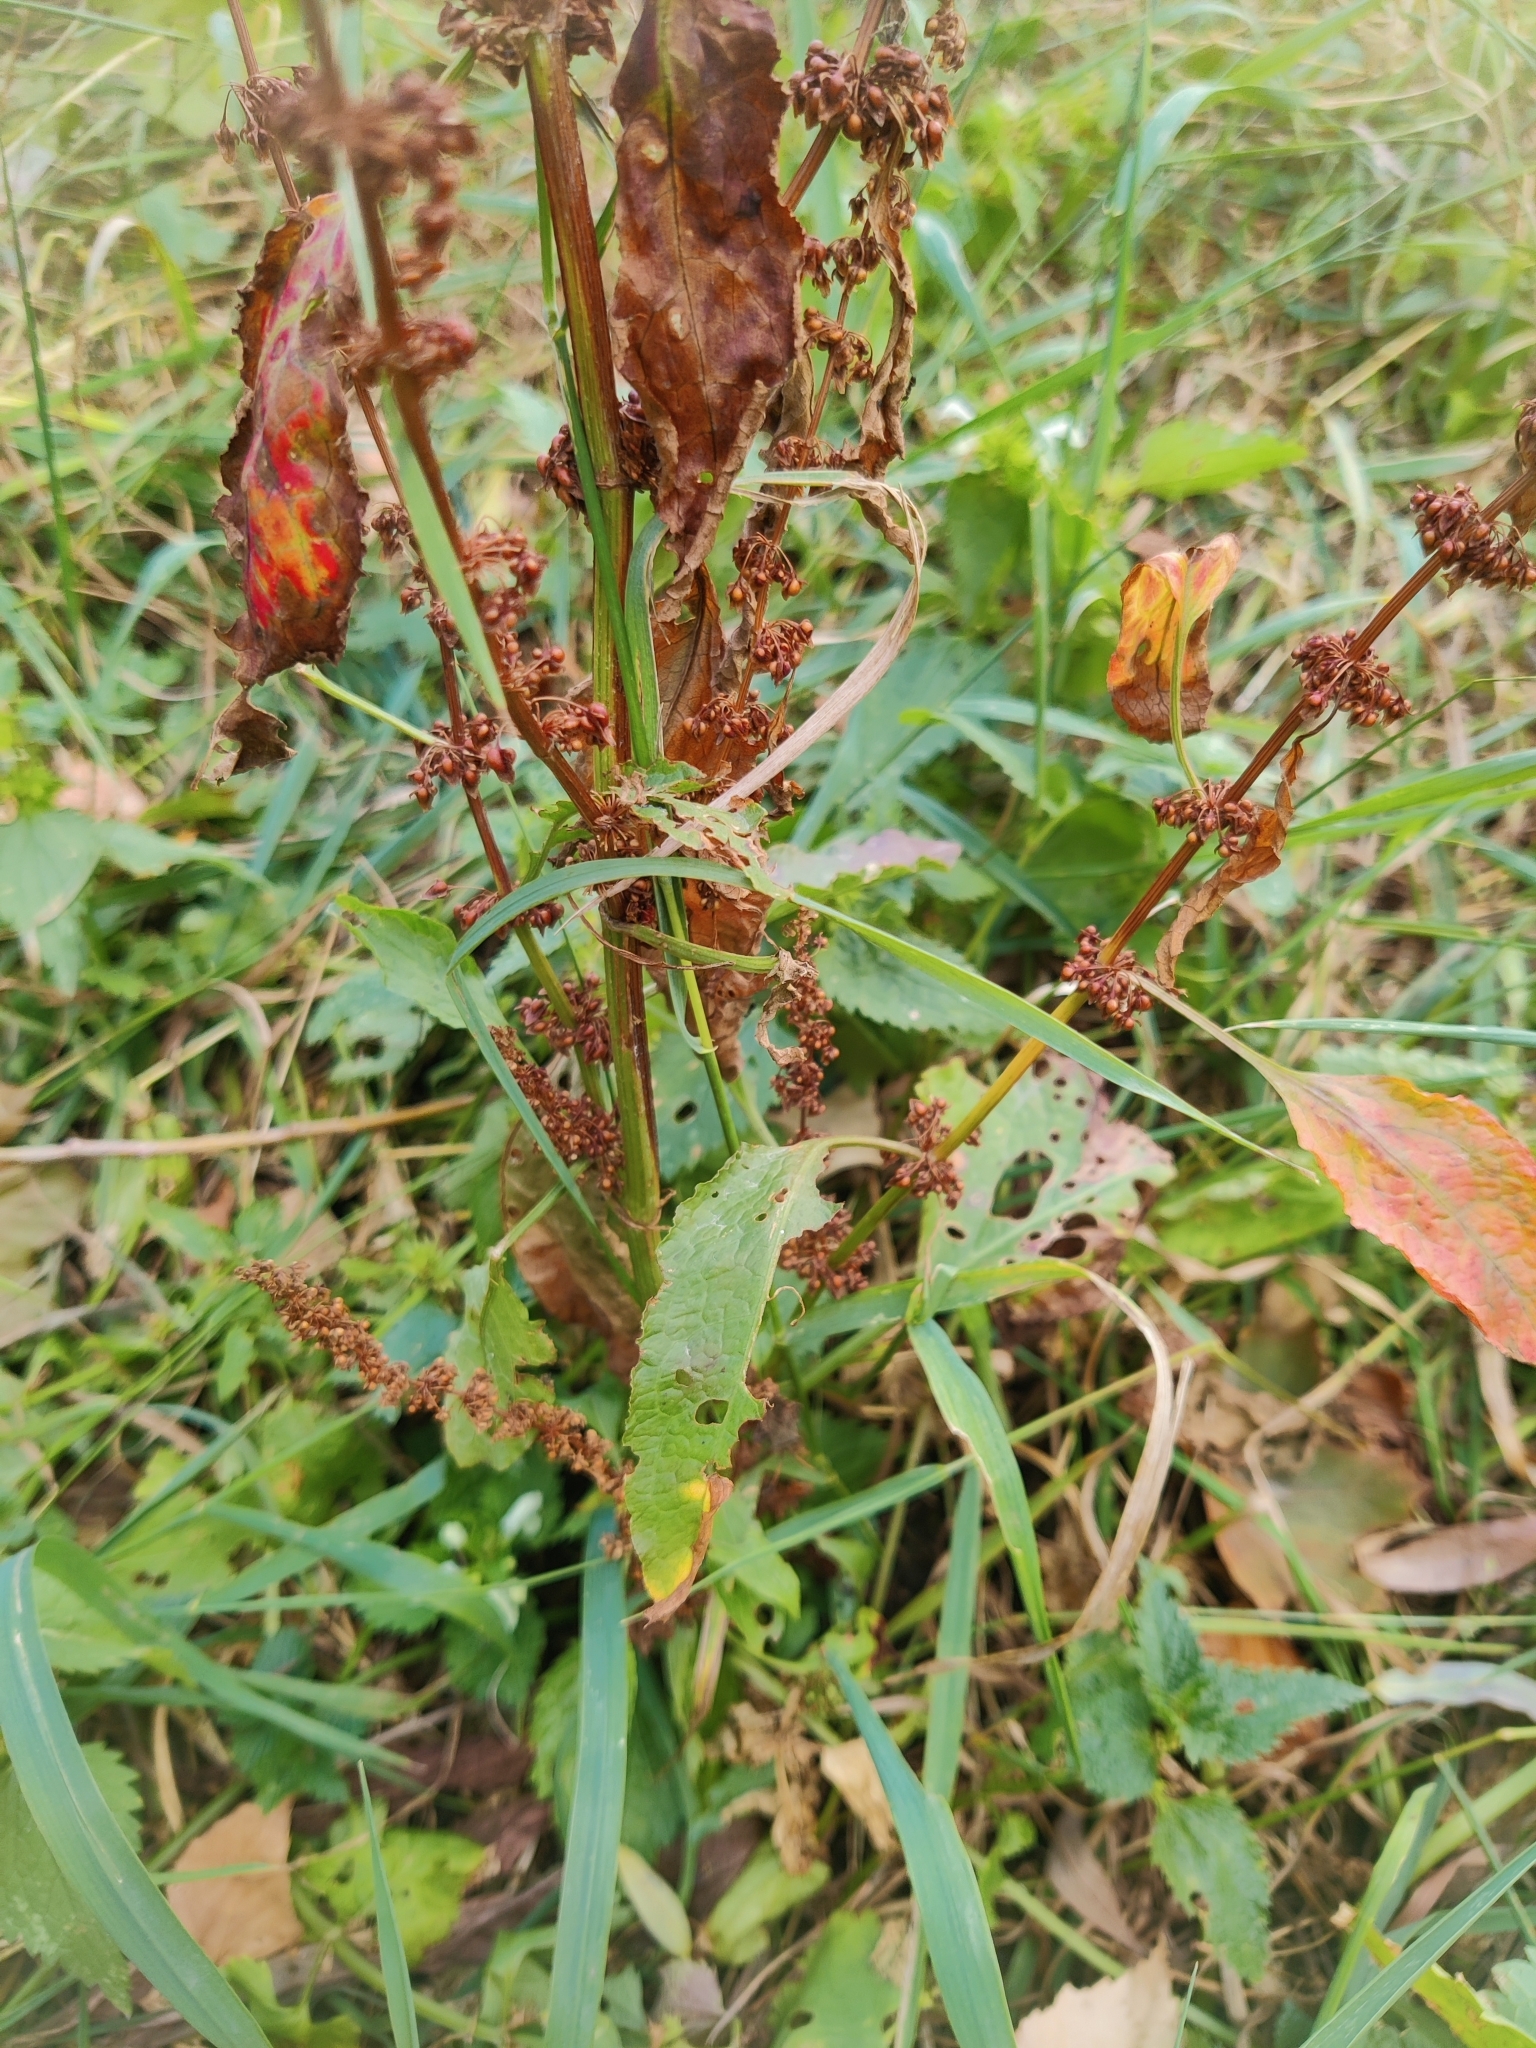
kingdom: Plantae
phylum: Tracheophyta
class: Magnoliopsida
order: Caryophyllales
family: Polygonaceae
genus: Rumex
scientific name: Rumex obtusifolius
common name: Bitter dock
